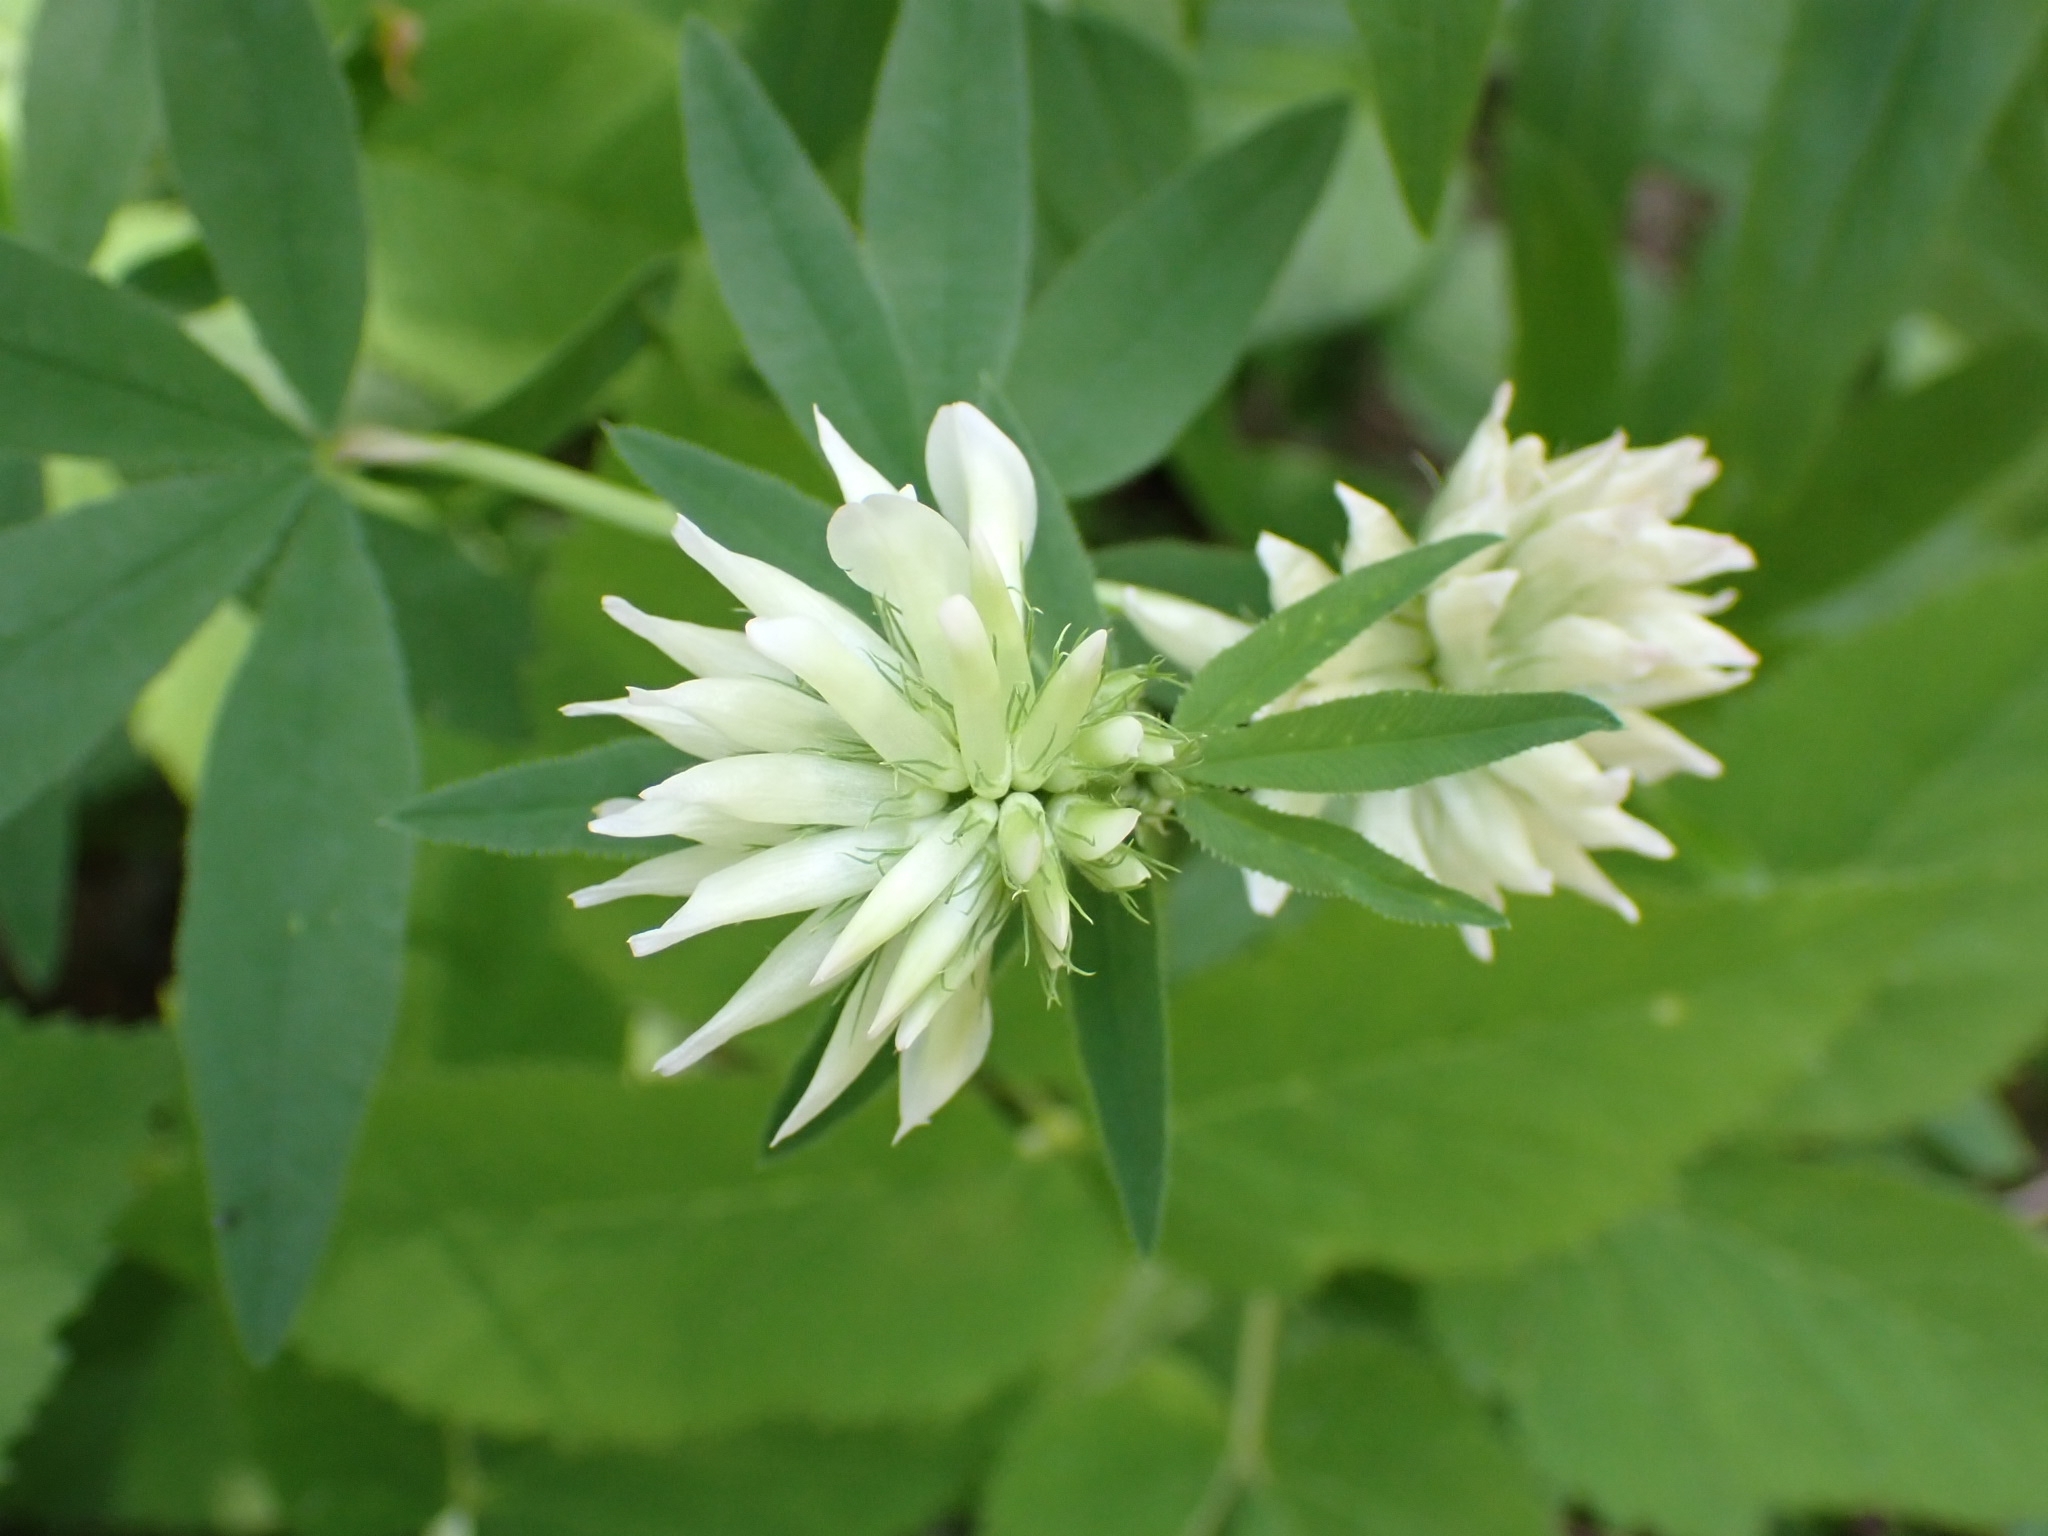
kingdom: Plantae
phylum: Tracheophyta
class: Magnoliopsida
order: Fabales
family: Fabaceae
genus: Trifolium
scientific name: Trifolium lupinaster
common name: Lupine clover
